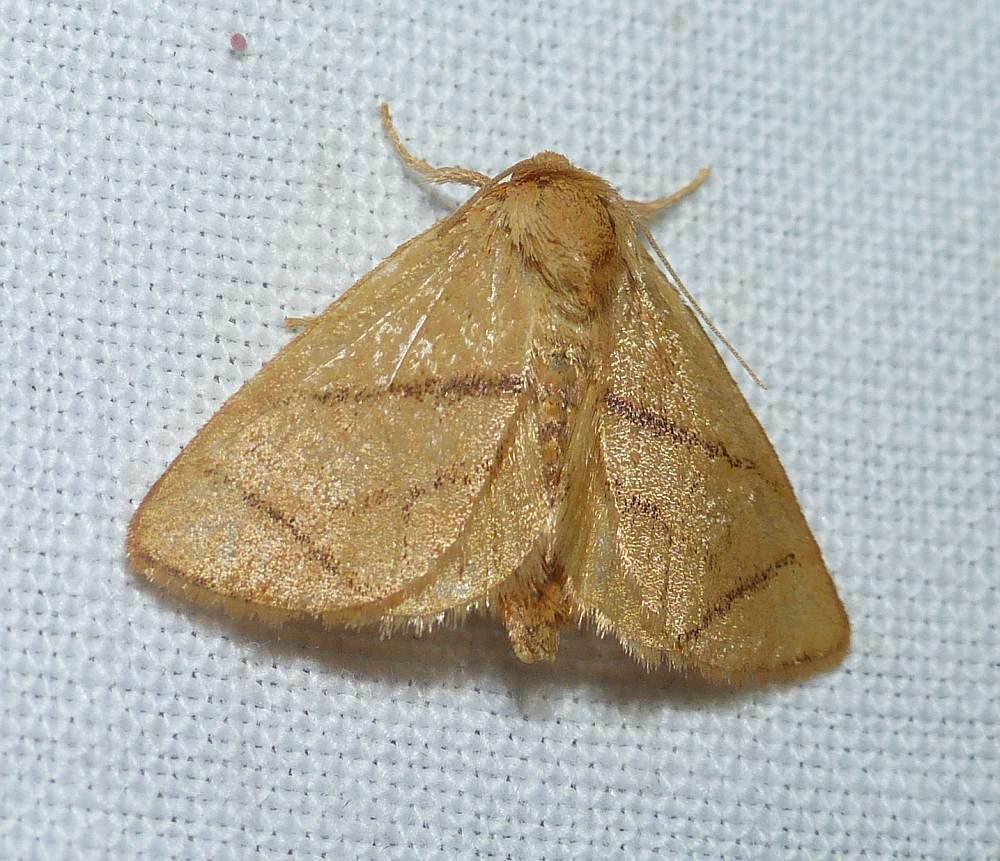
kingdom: Animalia
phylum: Arthropoda
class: Insecta
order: Lepidoptera
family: Limacodidae
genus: Apoda
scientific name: Apoda y-inversa
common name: Yellow-collared slug moth
